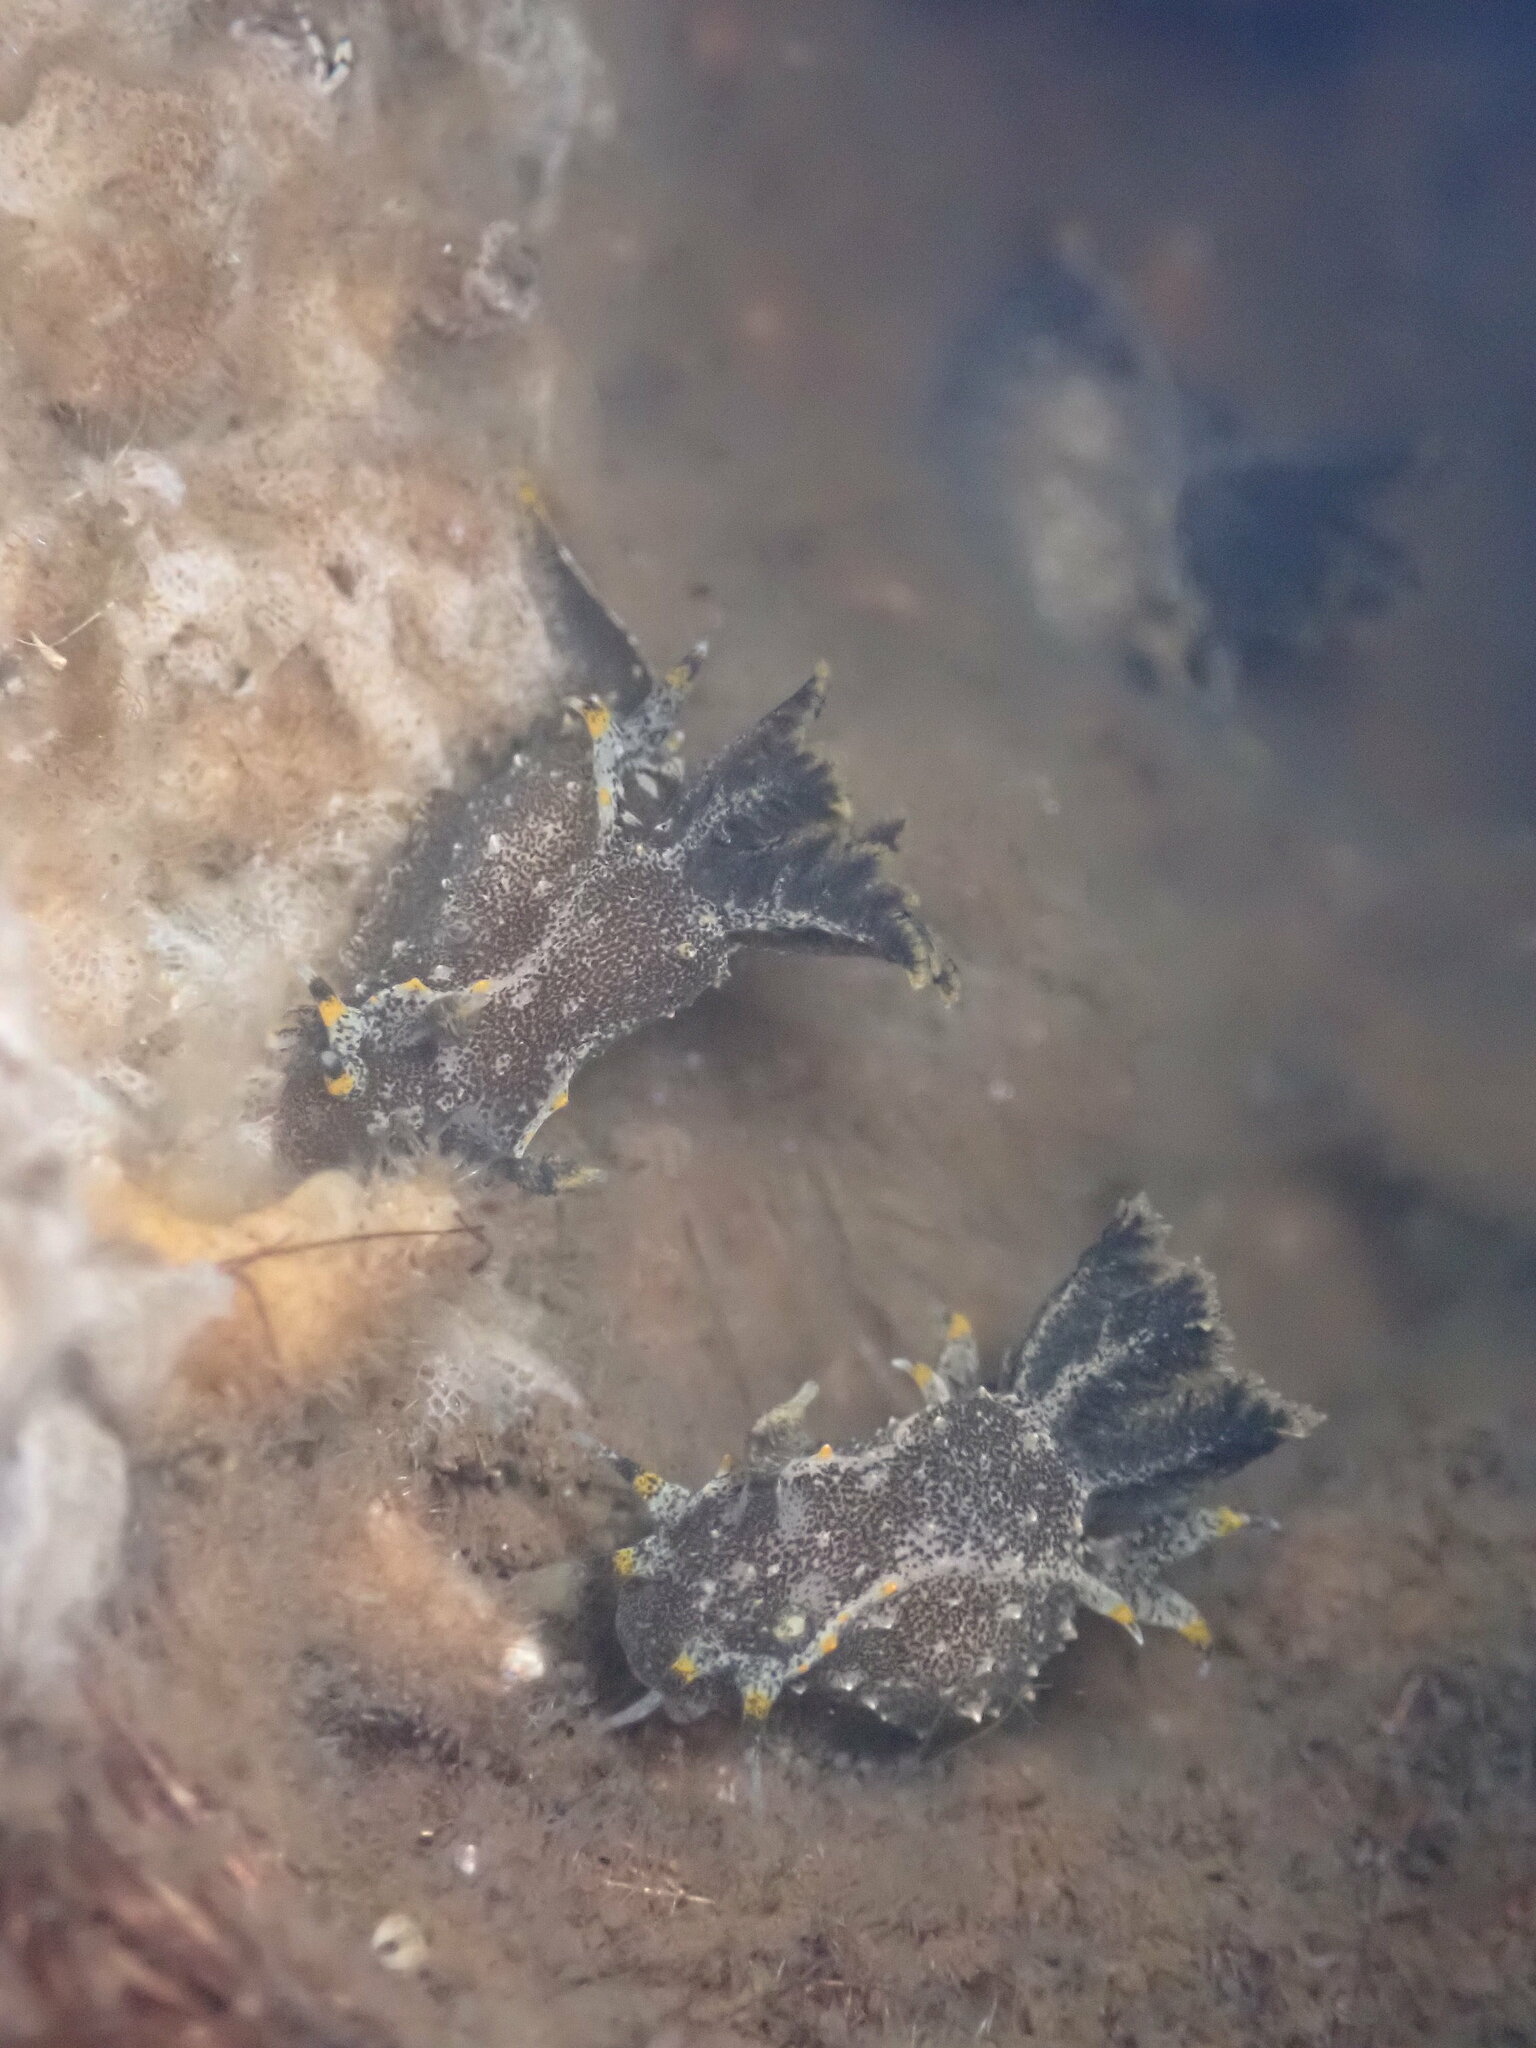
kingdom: Animalia
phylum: Mollusca
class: Gastropoda
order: Nudibranchia
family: Polyceridae
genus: Polycera
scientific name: Polycera hedgpethi
